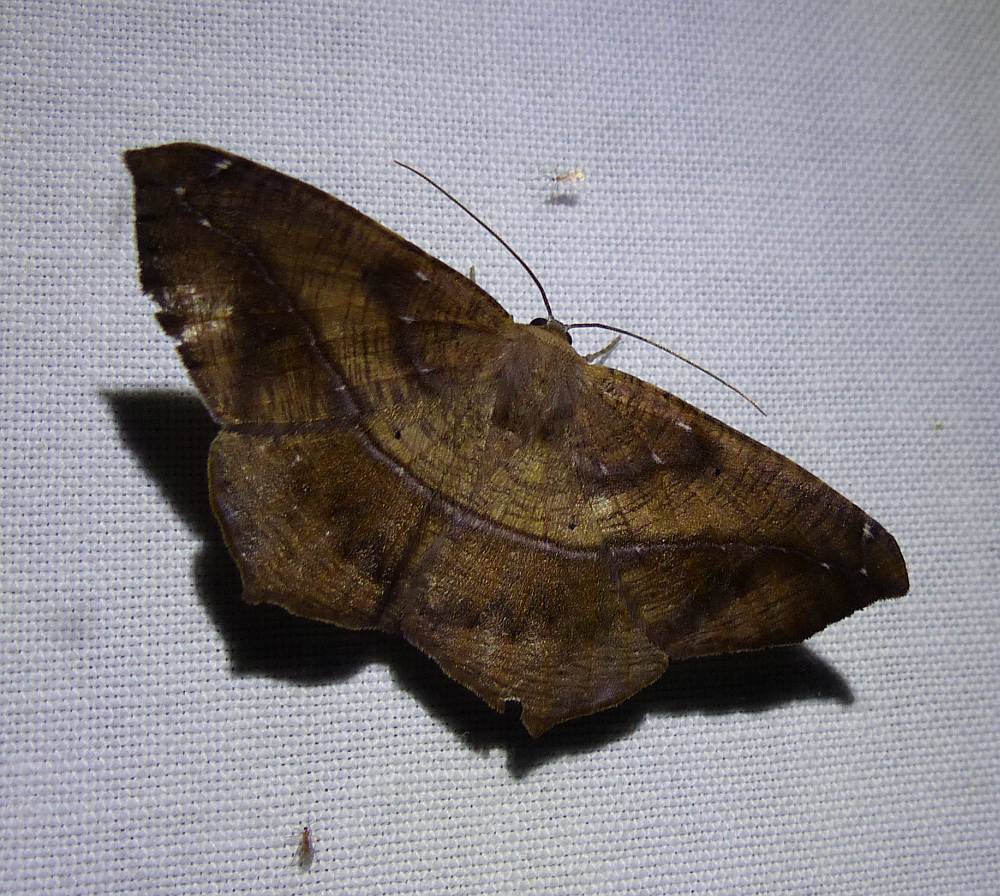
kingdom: Animalia
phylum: Arthropoda
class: Insecta
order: Lepidoptera
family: Geometridae
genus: Prochoerodes
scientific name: Prochoerodes lineola
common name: Large maple spanworm
